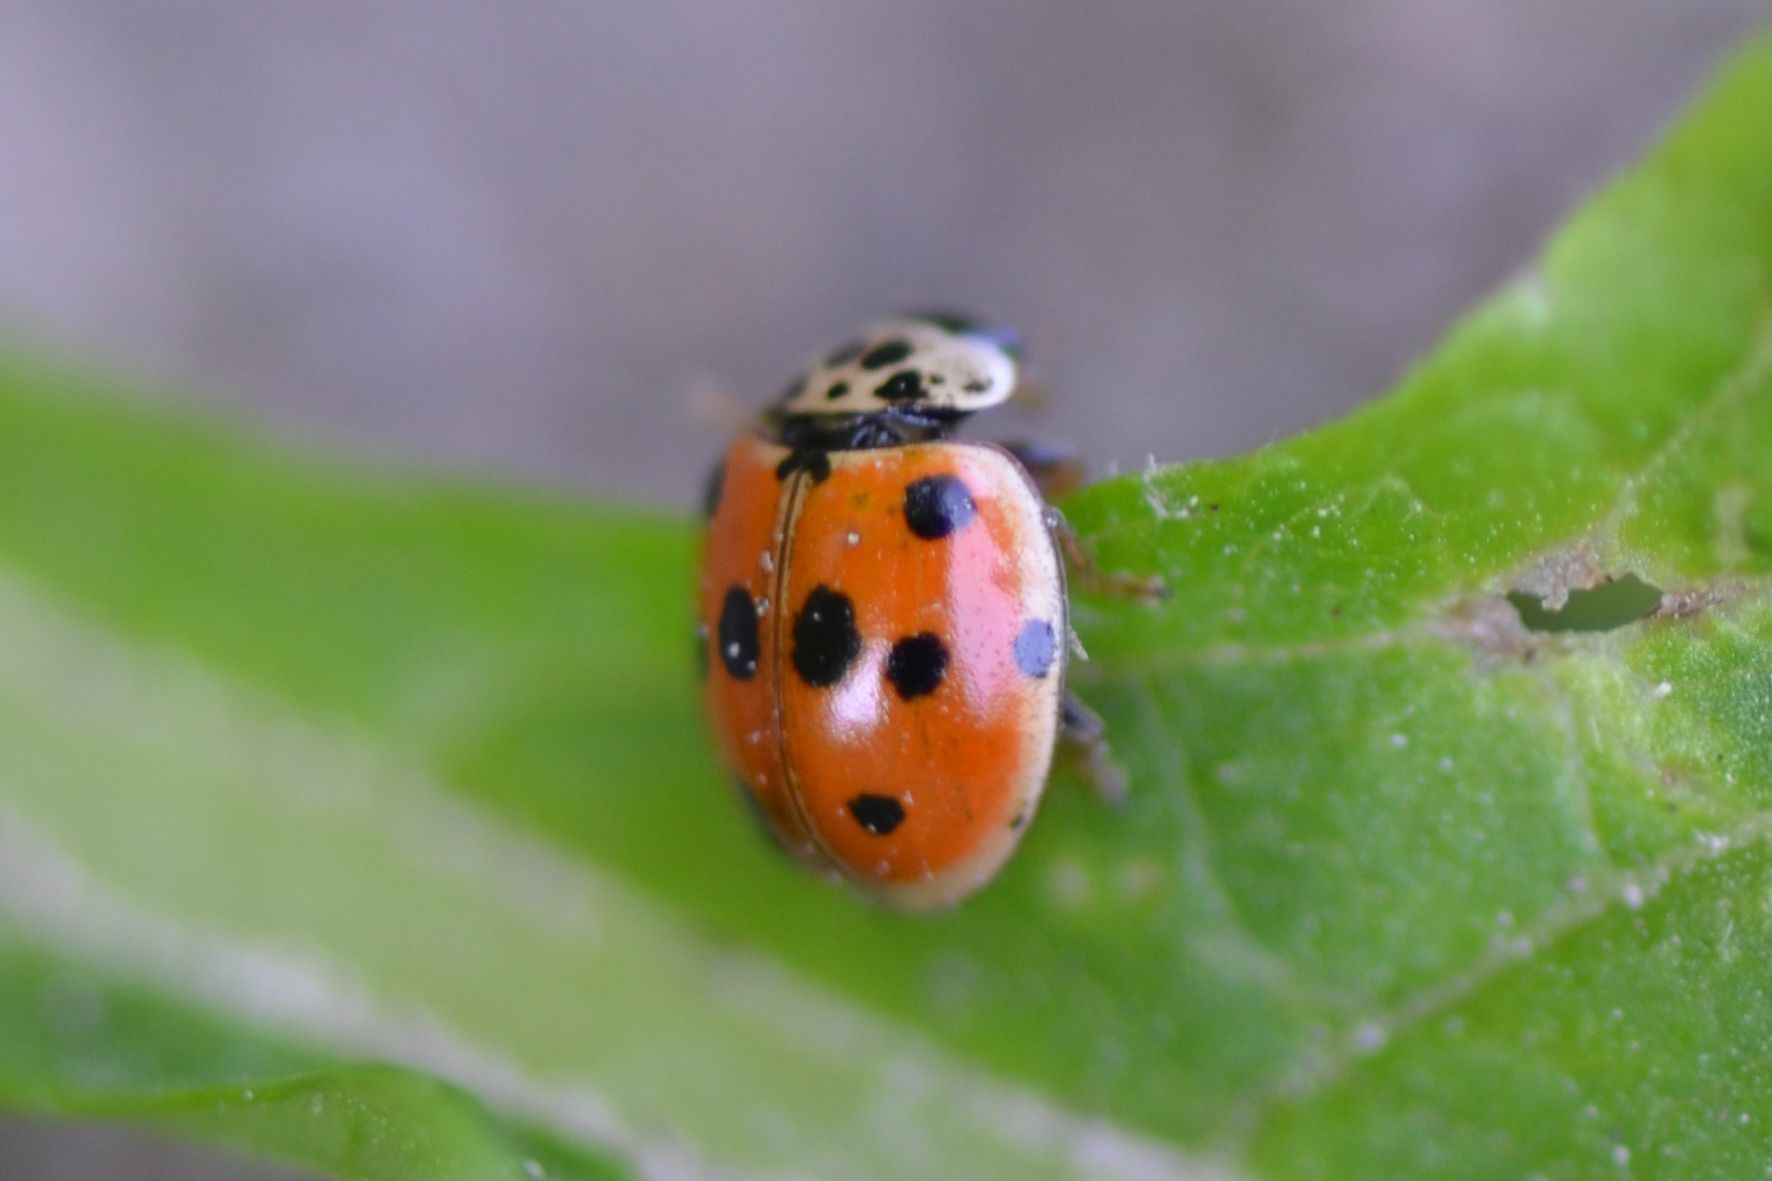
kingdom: Animalia
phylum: Arthropoda
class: Insecta
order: Coleoptera
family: Coccinellidae
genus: Adalia
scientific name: Adalia decempunctata
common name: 10-spot ladybird
